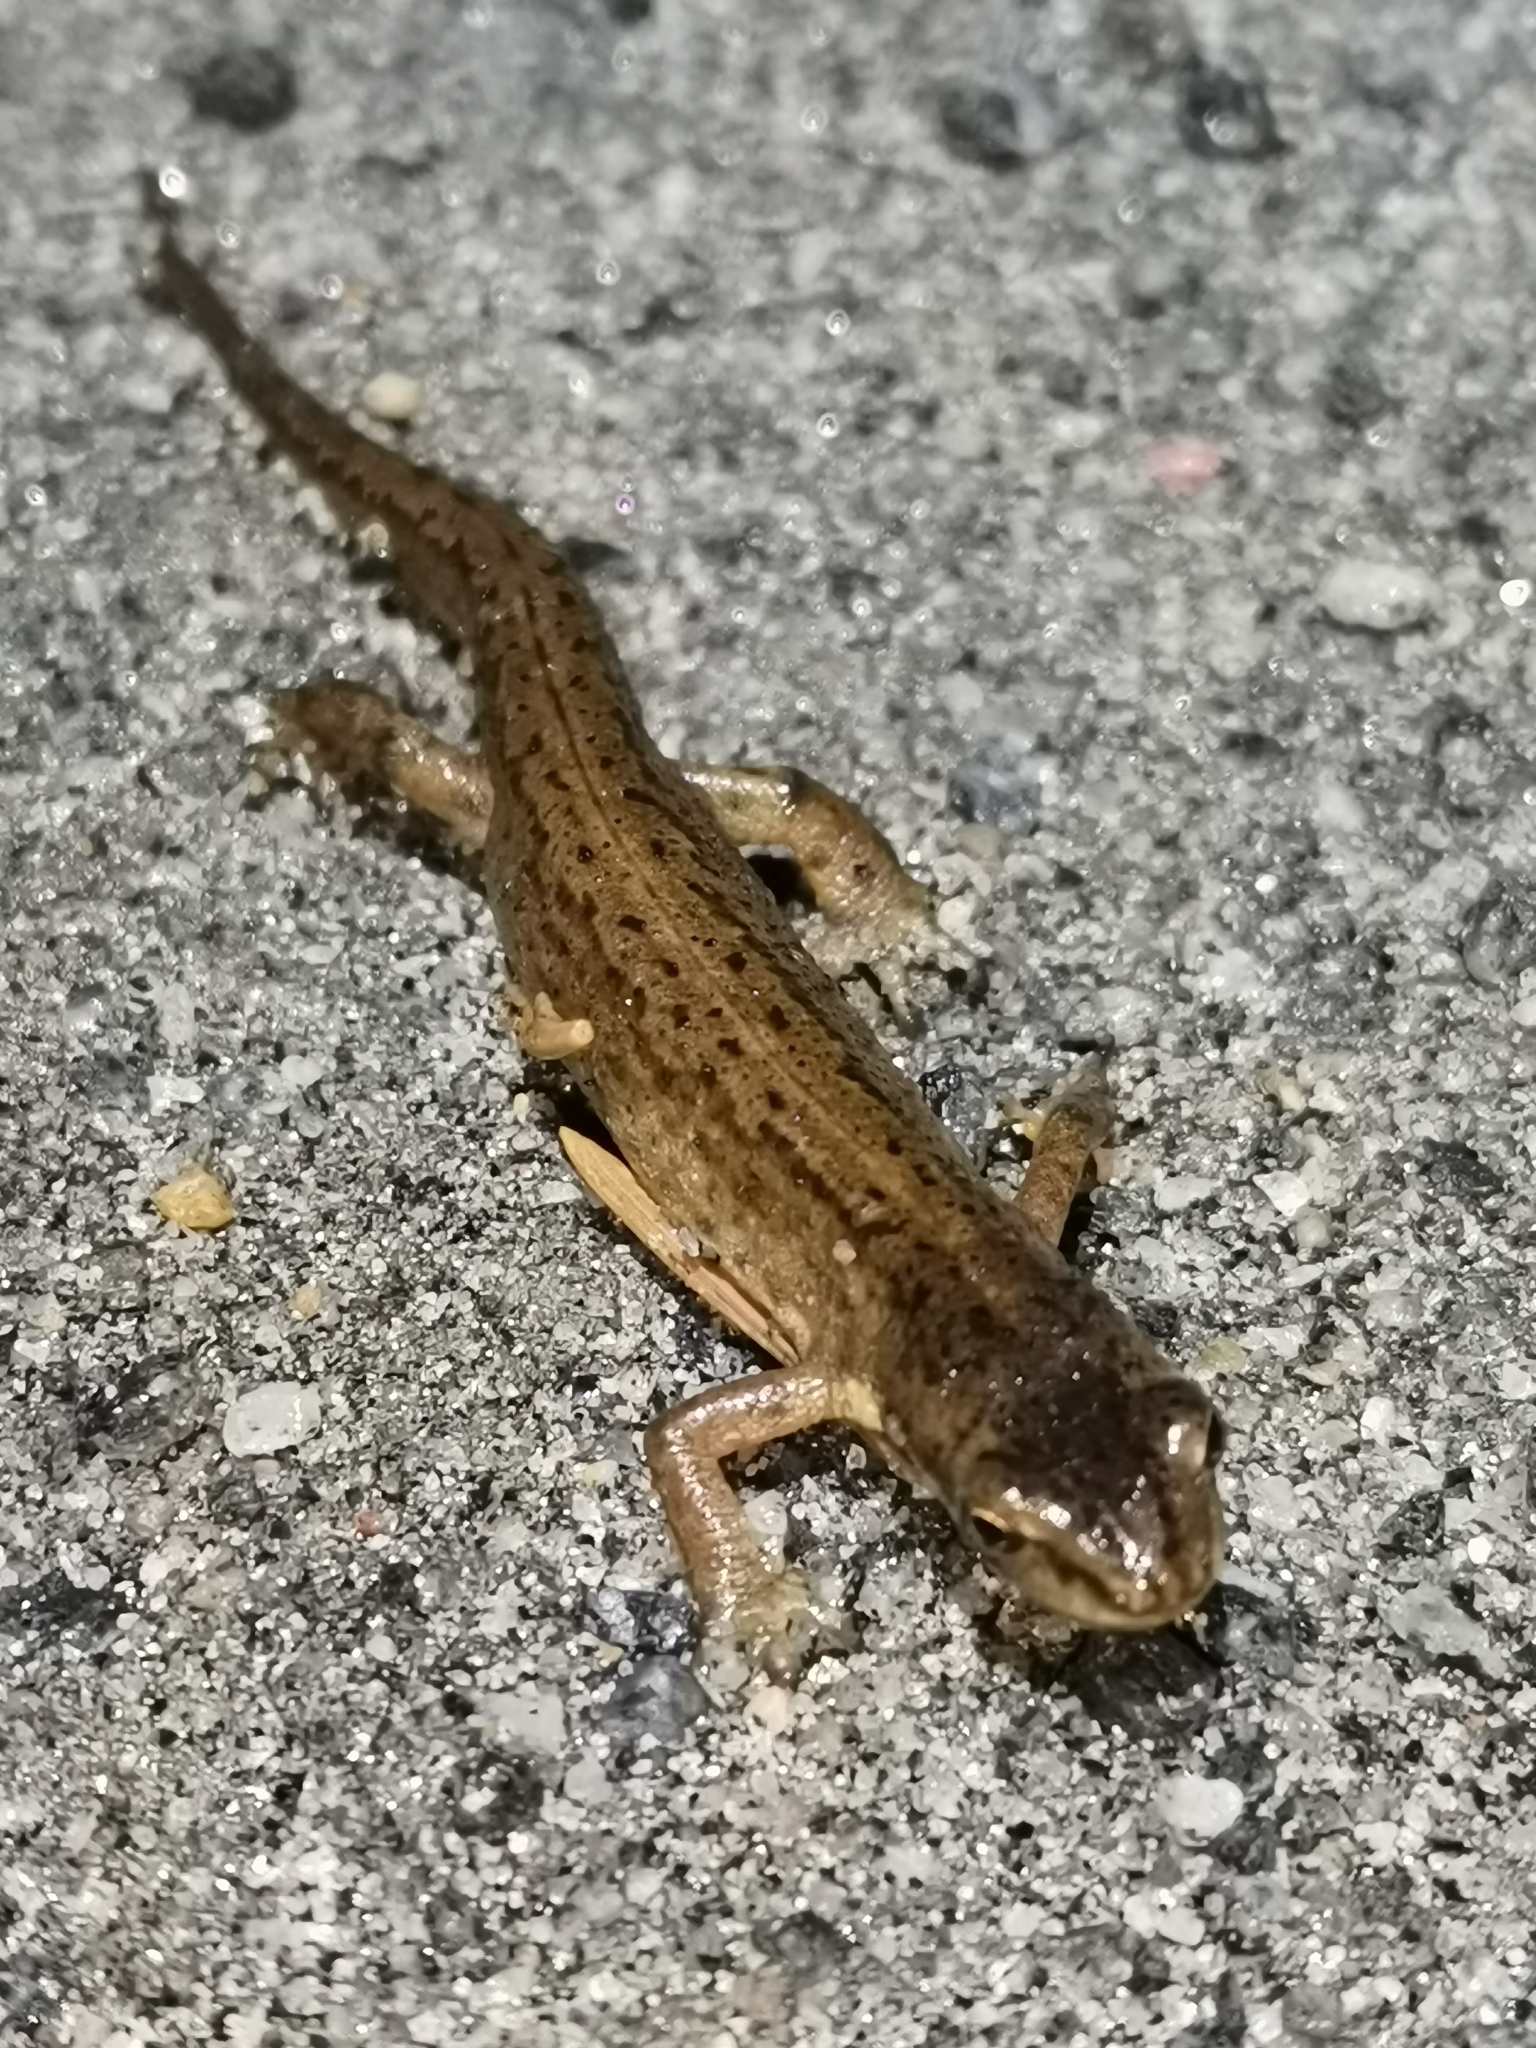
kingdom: Animalia
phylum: Chordata
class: Amphibia
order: Caudata
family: Salamandridae
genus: Lissotriton
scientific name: Lissotriton vulgaris
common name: Smooth newt
